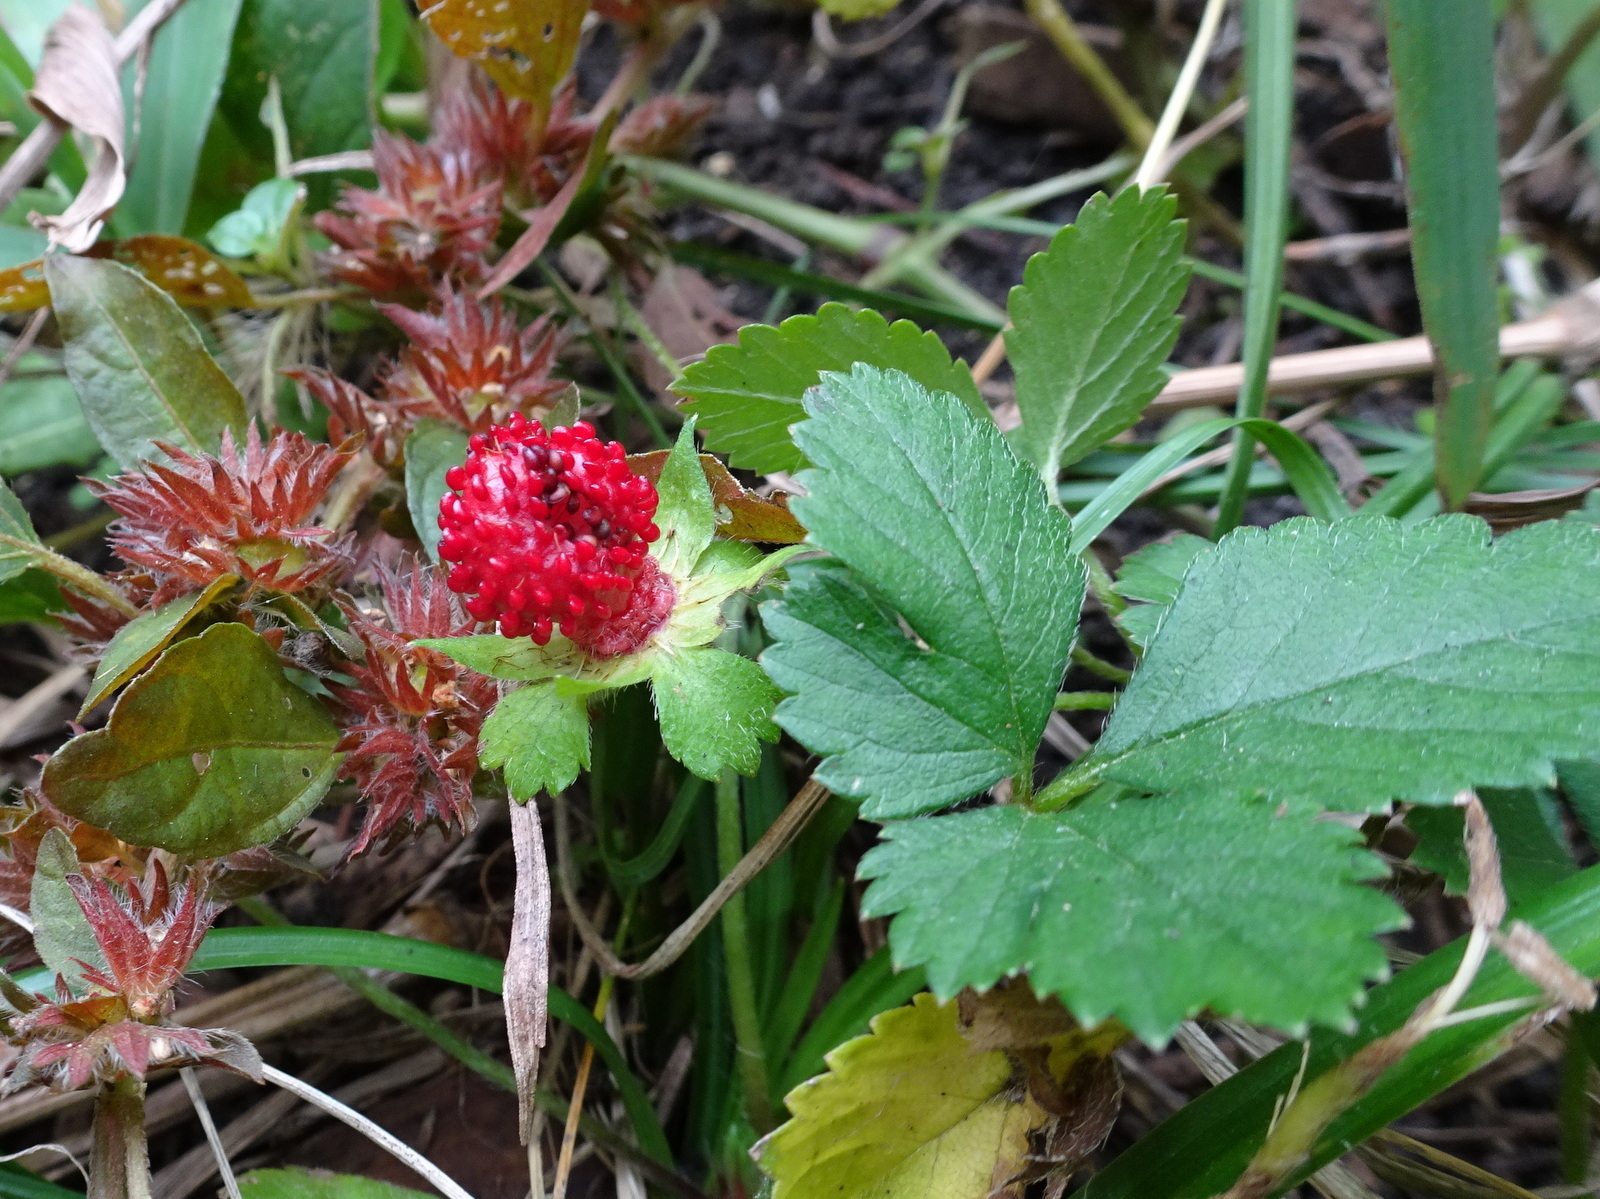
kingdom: Plantae
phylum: Tracheophyta
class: Magnoliopsida
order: Rosales
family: Rosaceae
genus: Potentilla
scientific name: Potentilla indica
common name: Yellow-flowered strawberry
